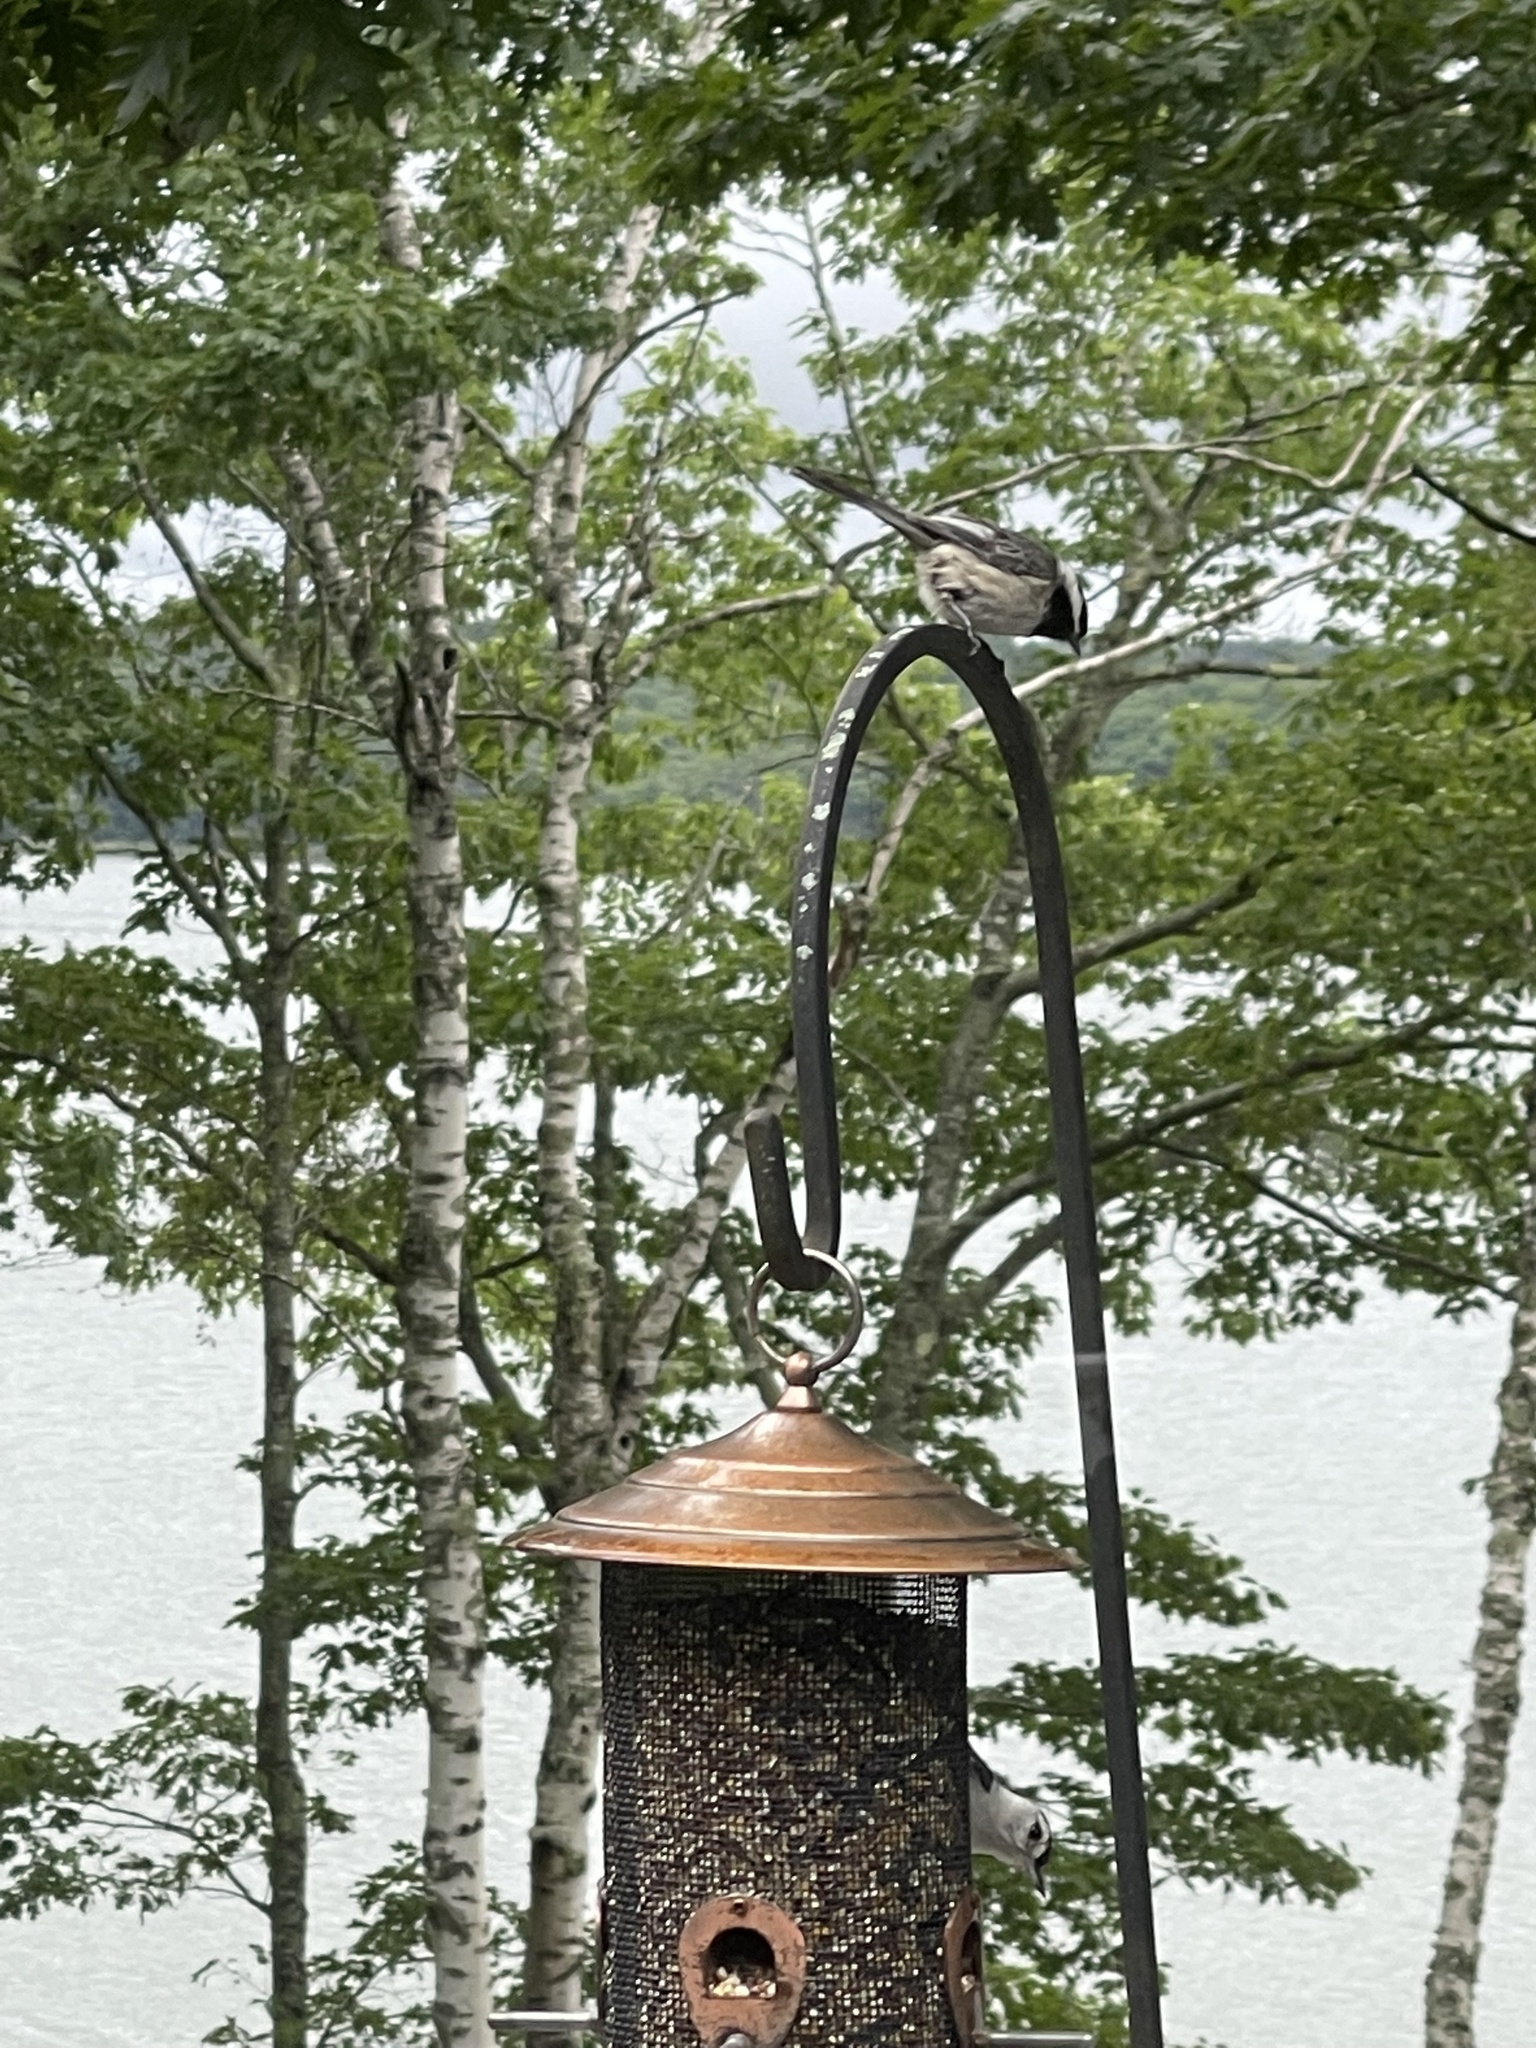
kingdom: Animalia
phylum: Chordata
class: Aves
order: Passeriformes
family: Paridae
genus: Poecile
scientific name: Poecile atricapillus
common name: Black-capped chickadee
